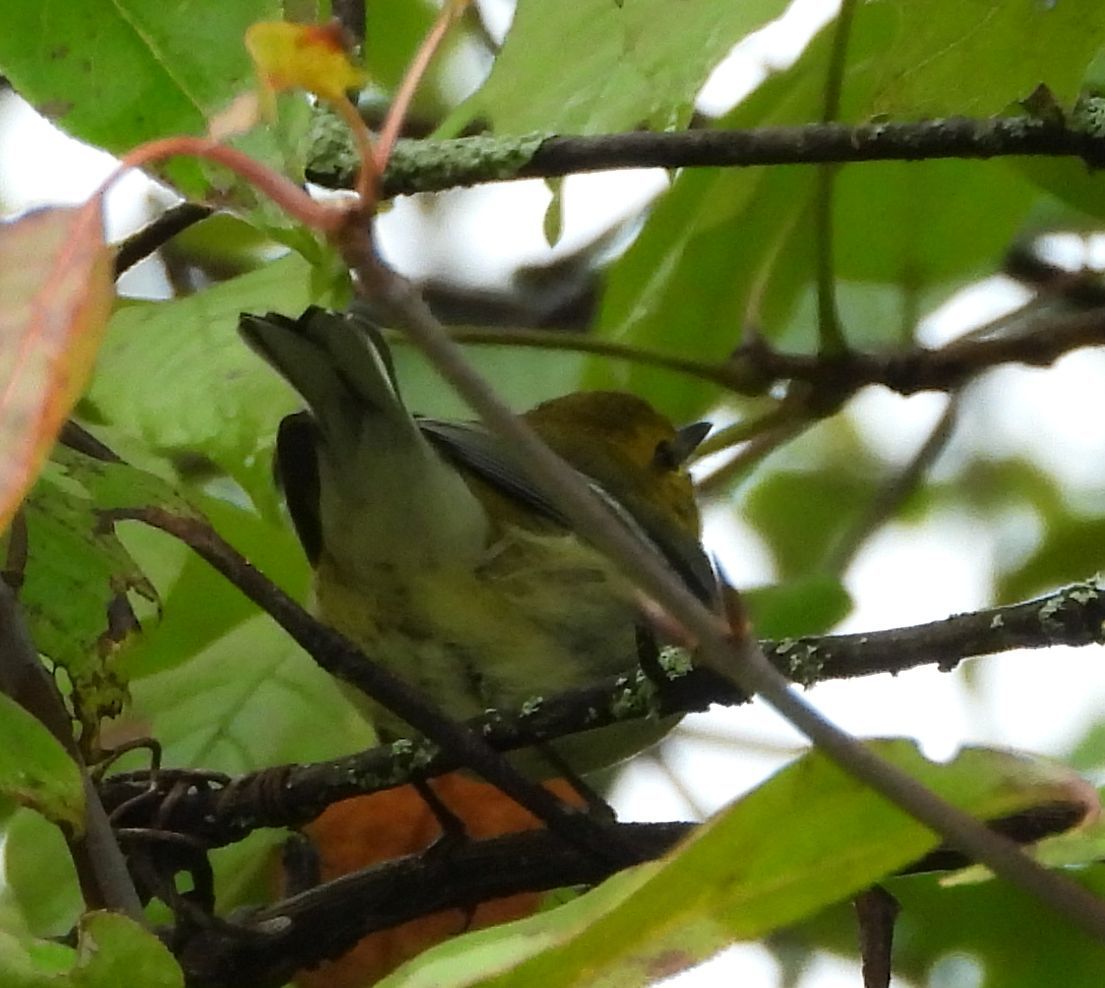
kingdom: Animalia
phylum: Chordata
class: Aves
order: Passeriformes
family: Parulidae
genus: Setophaga
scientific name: Setophaga virens
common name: Black-throated green warbler
